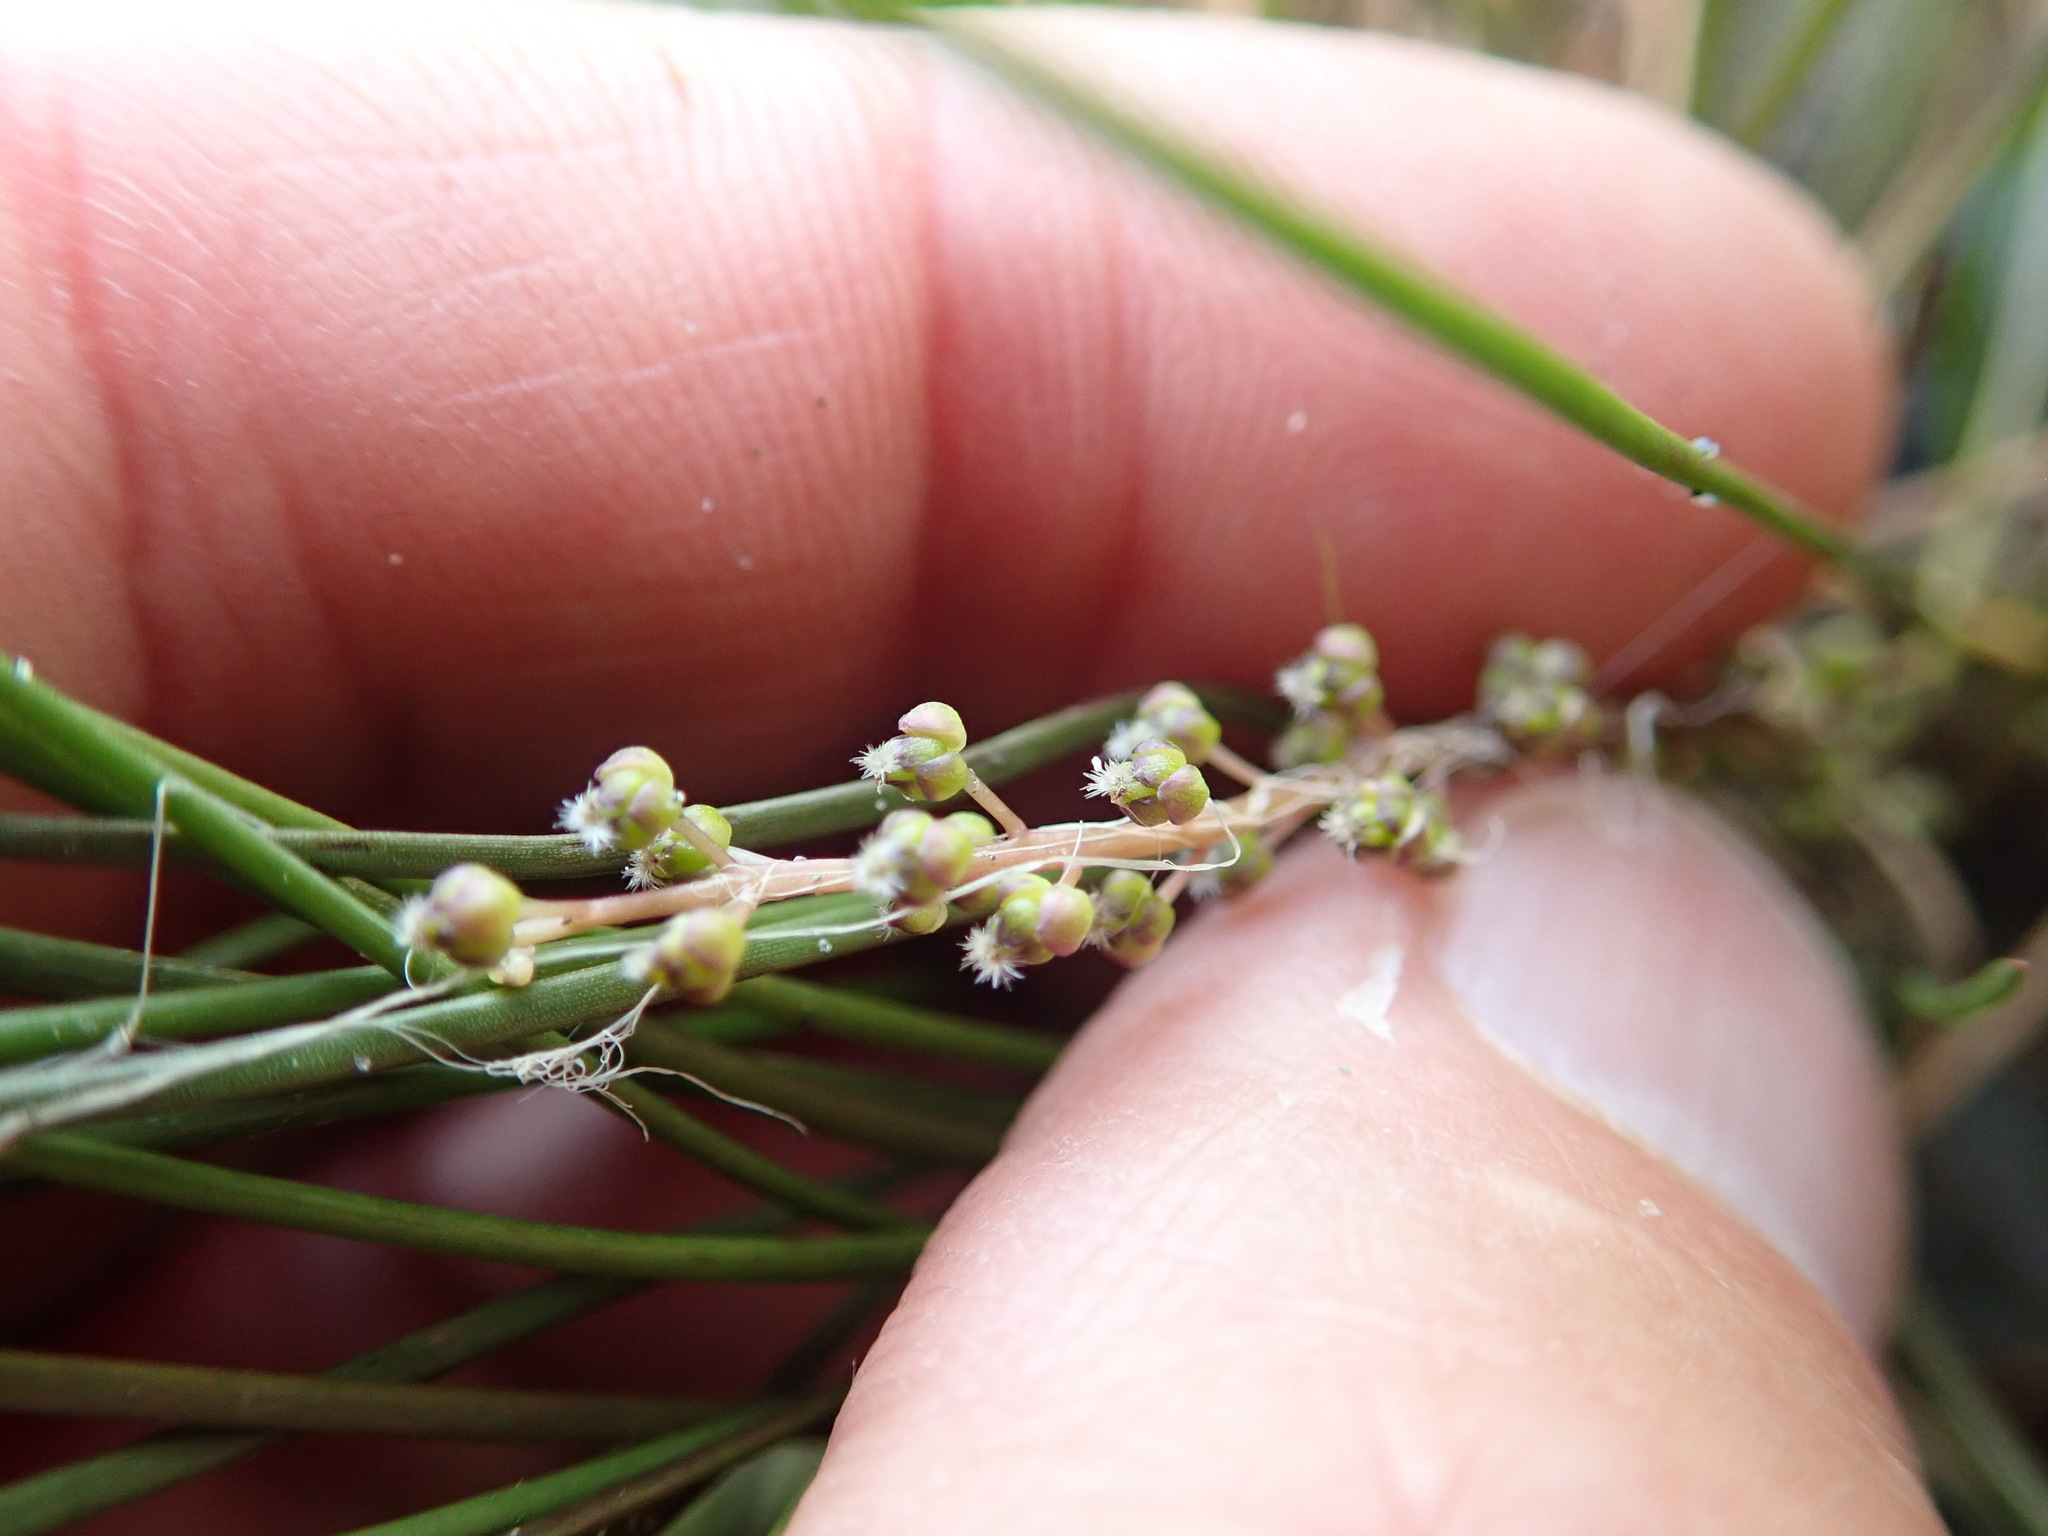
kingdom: Plantae
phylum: Tracheophyta
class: Liliopsida
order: Alismatales
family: Juncaginaceae
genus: Triglochin
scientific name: Triglochin striata
